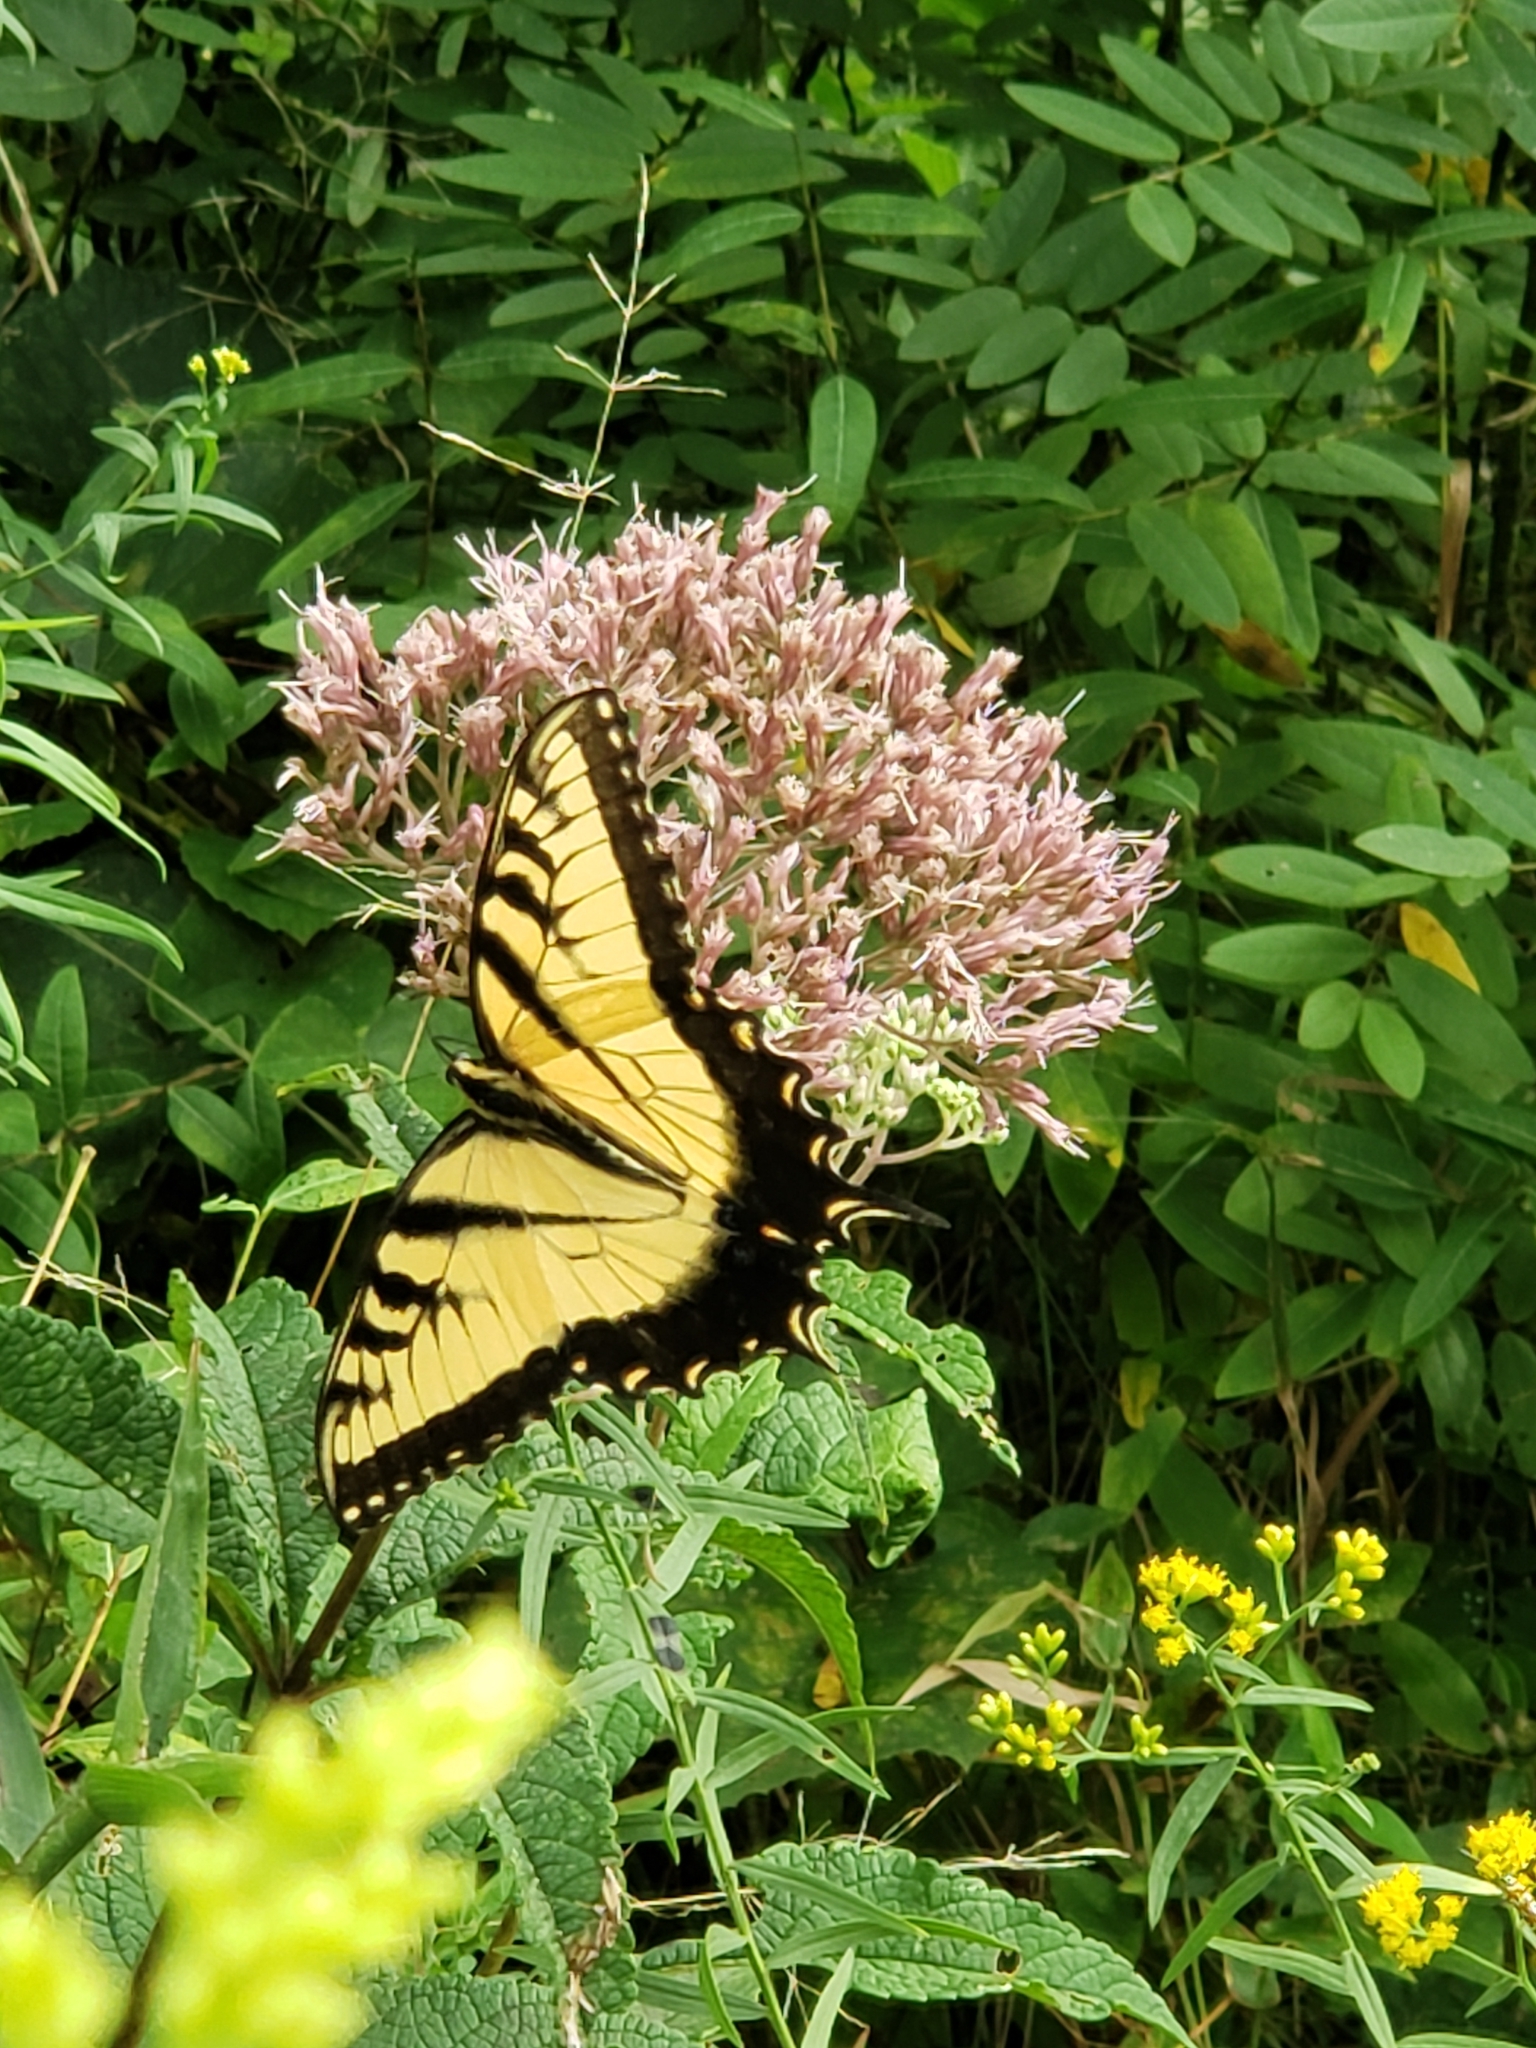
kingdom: Animalia
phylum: Arthropoda
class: Insecta
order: Lepidoptera
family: Papilionidae
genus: Papilio
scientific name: Papilio glaucus
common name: Tiger swallowtail
